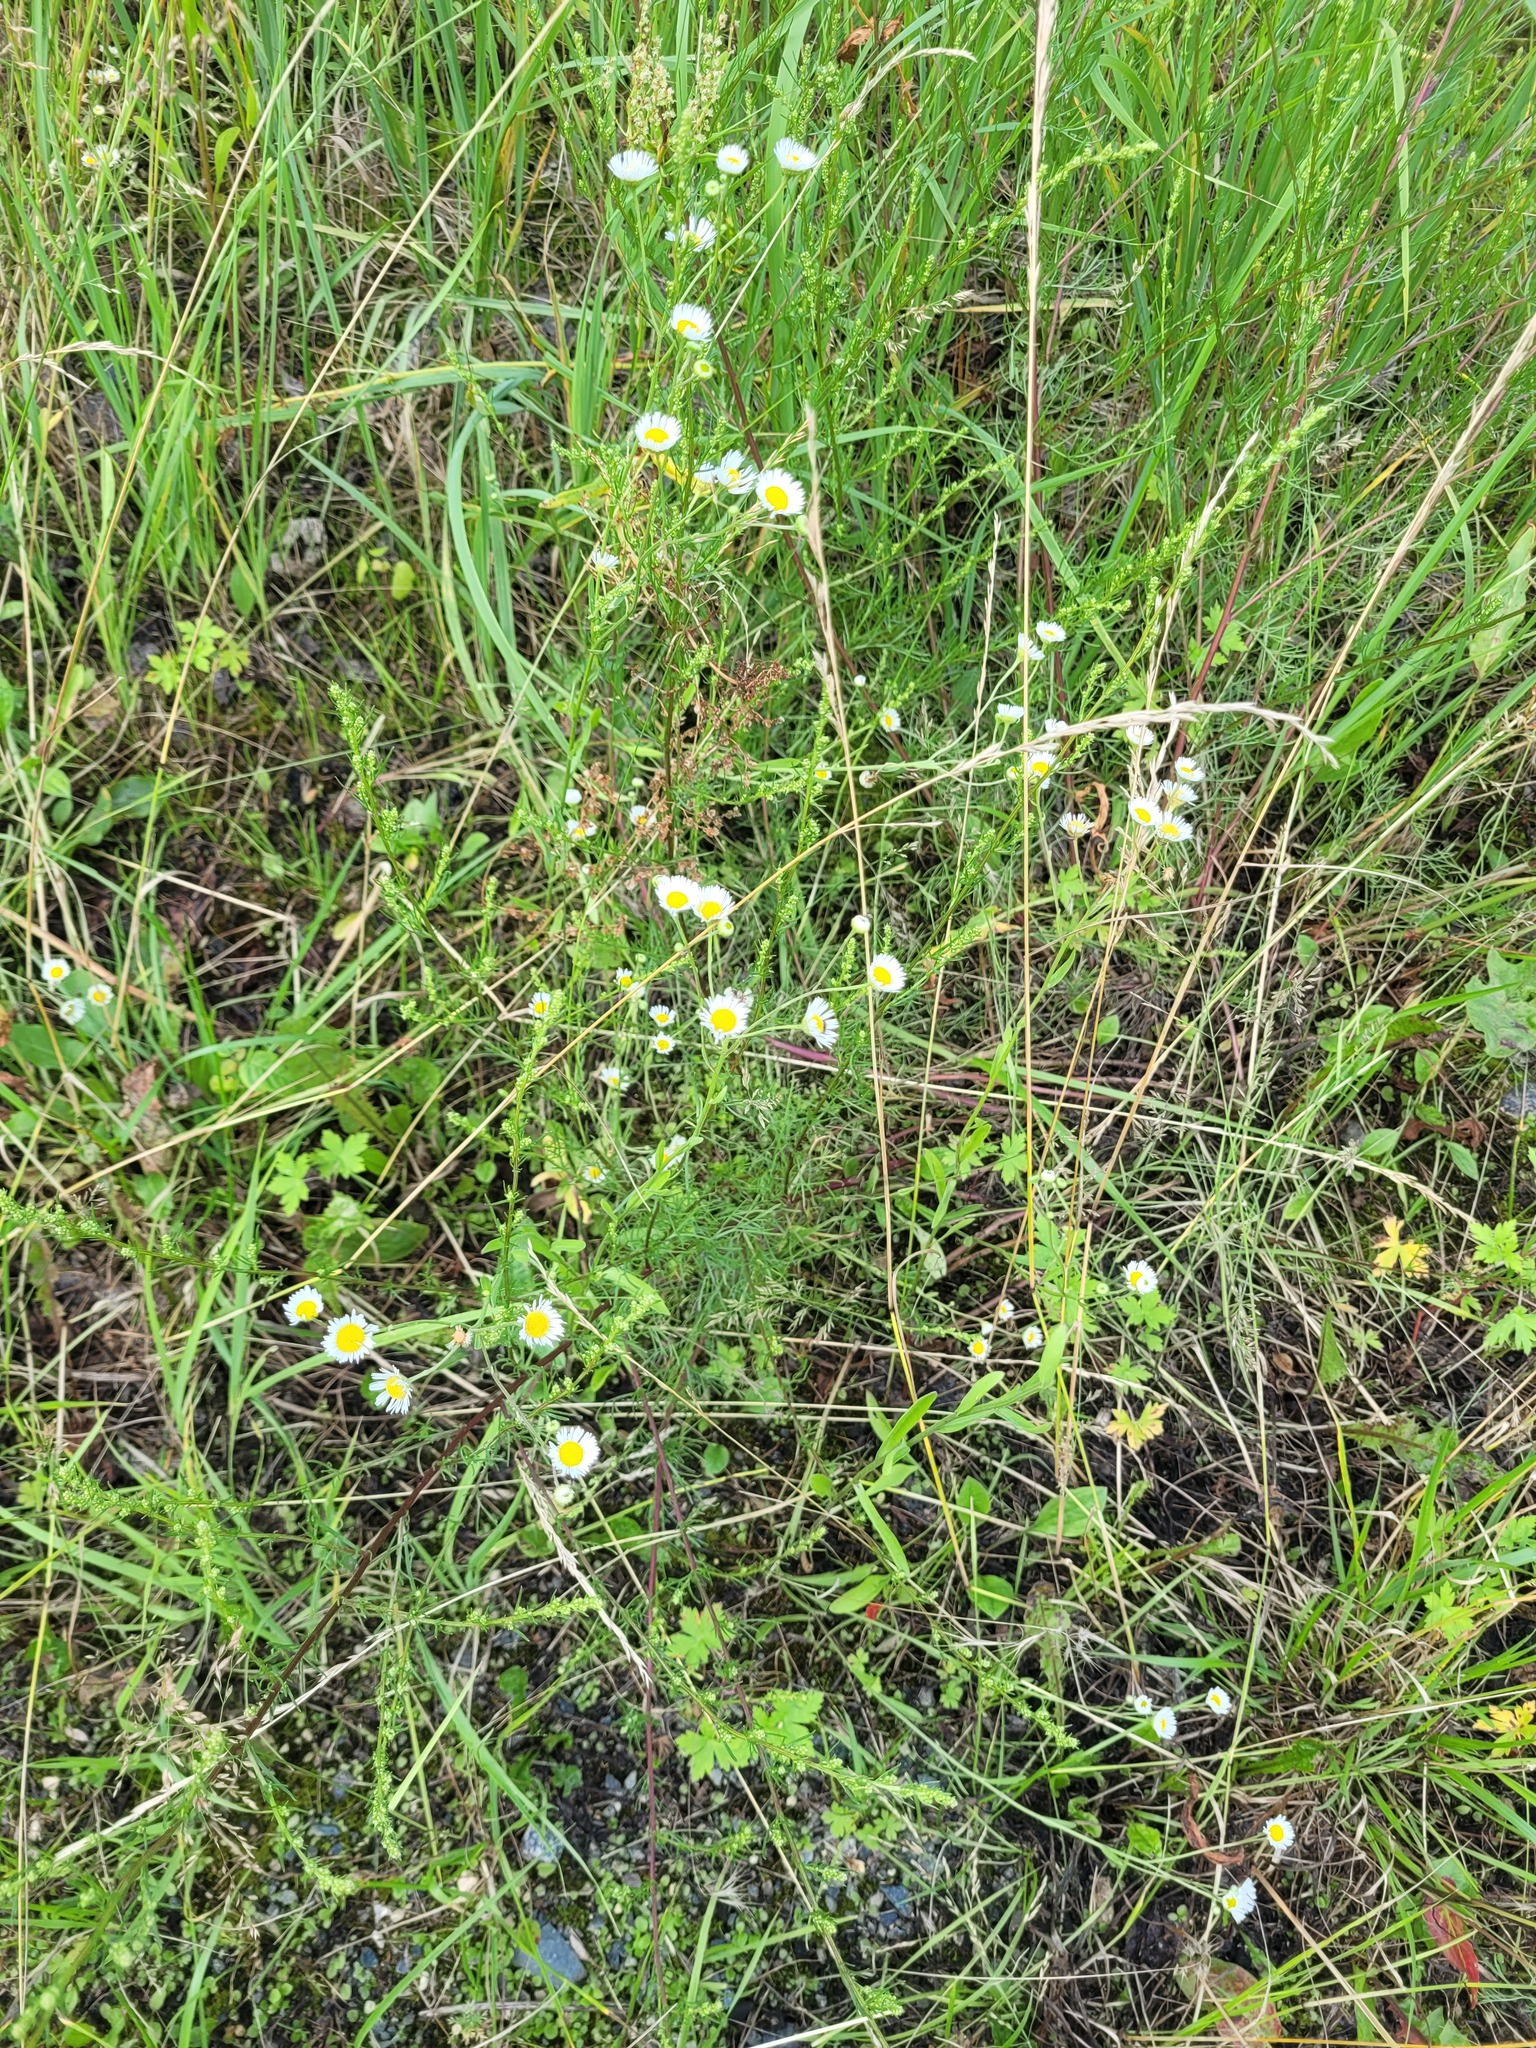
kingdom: Plantae
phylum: Tracheophyta
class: Magnoliopsida
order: Asterales
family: Asteraceae
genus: Erigeron
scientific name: Erigeron annuus
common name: Tall fleabane
